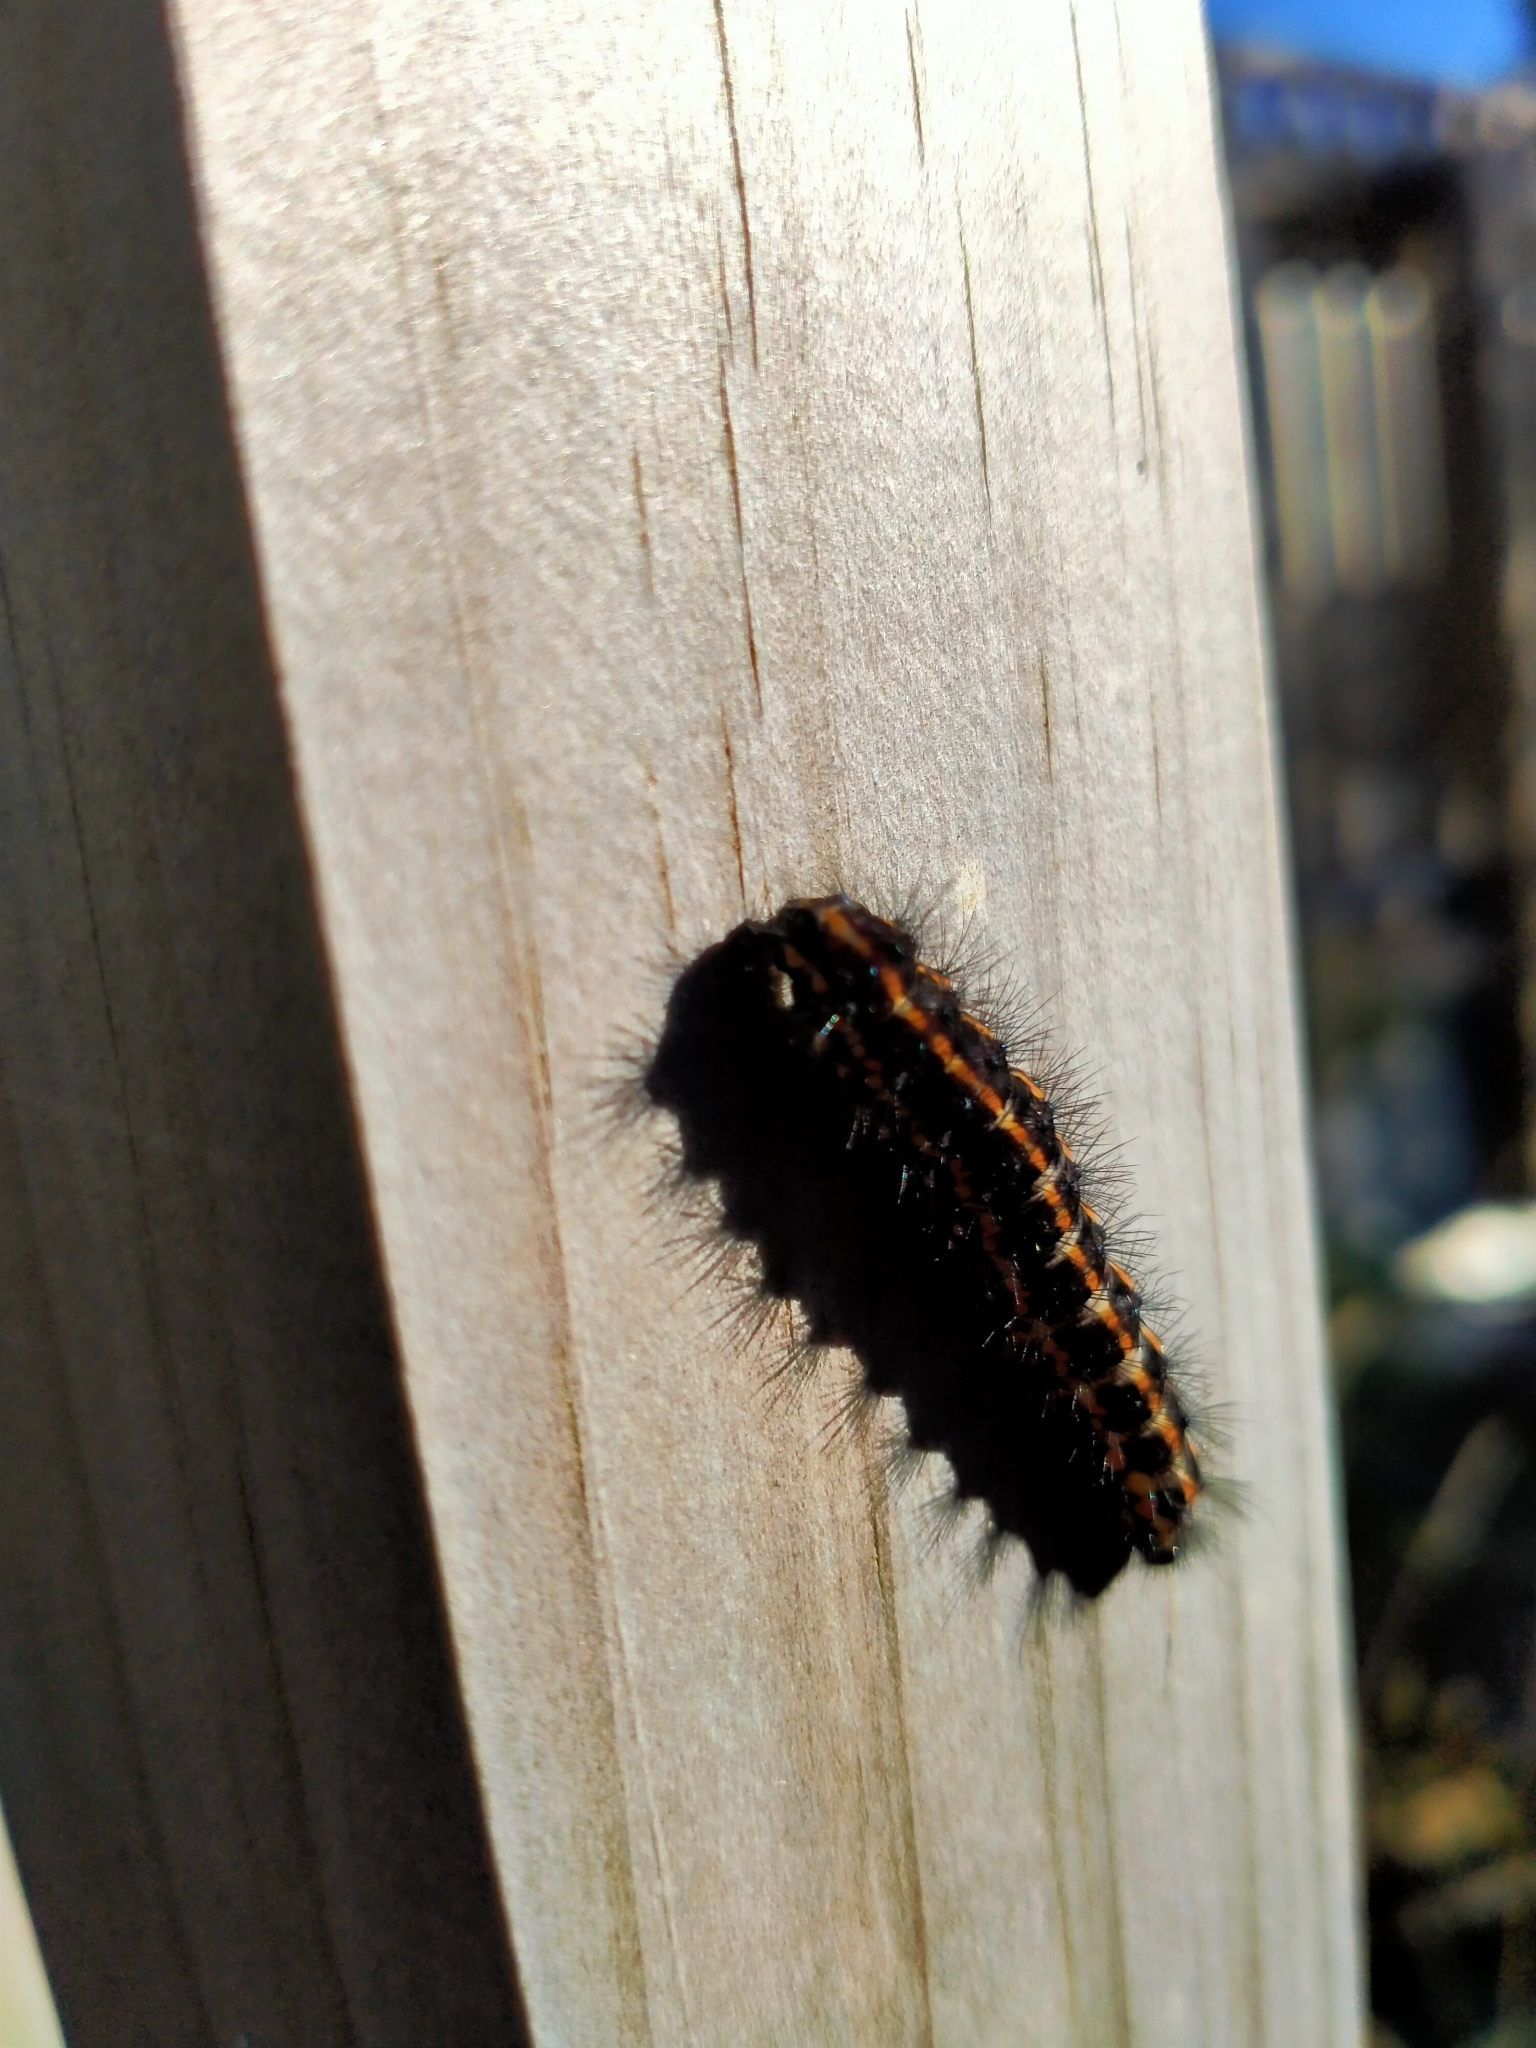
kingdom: Animalia
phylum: Arthropoda
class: Insecta
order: Lepidoptera
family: Erebidae
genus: Nyctemera
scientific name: Nyctemera annulatum
